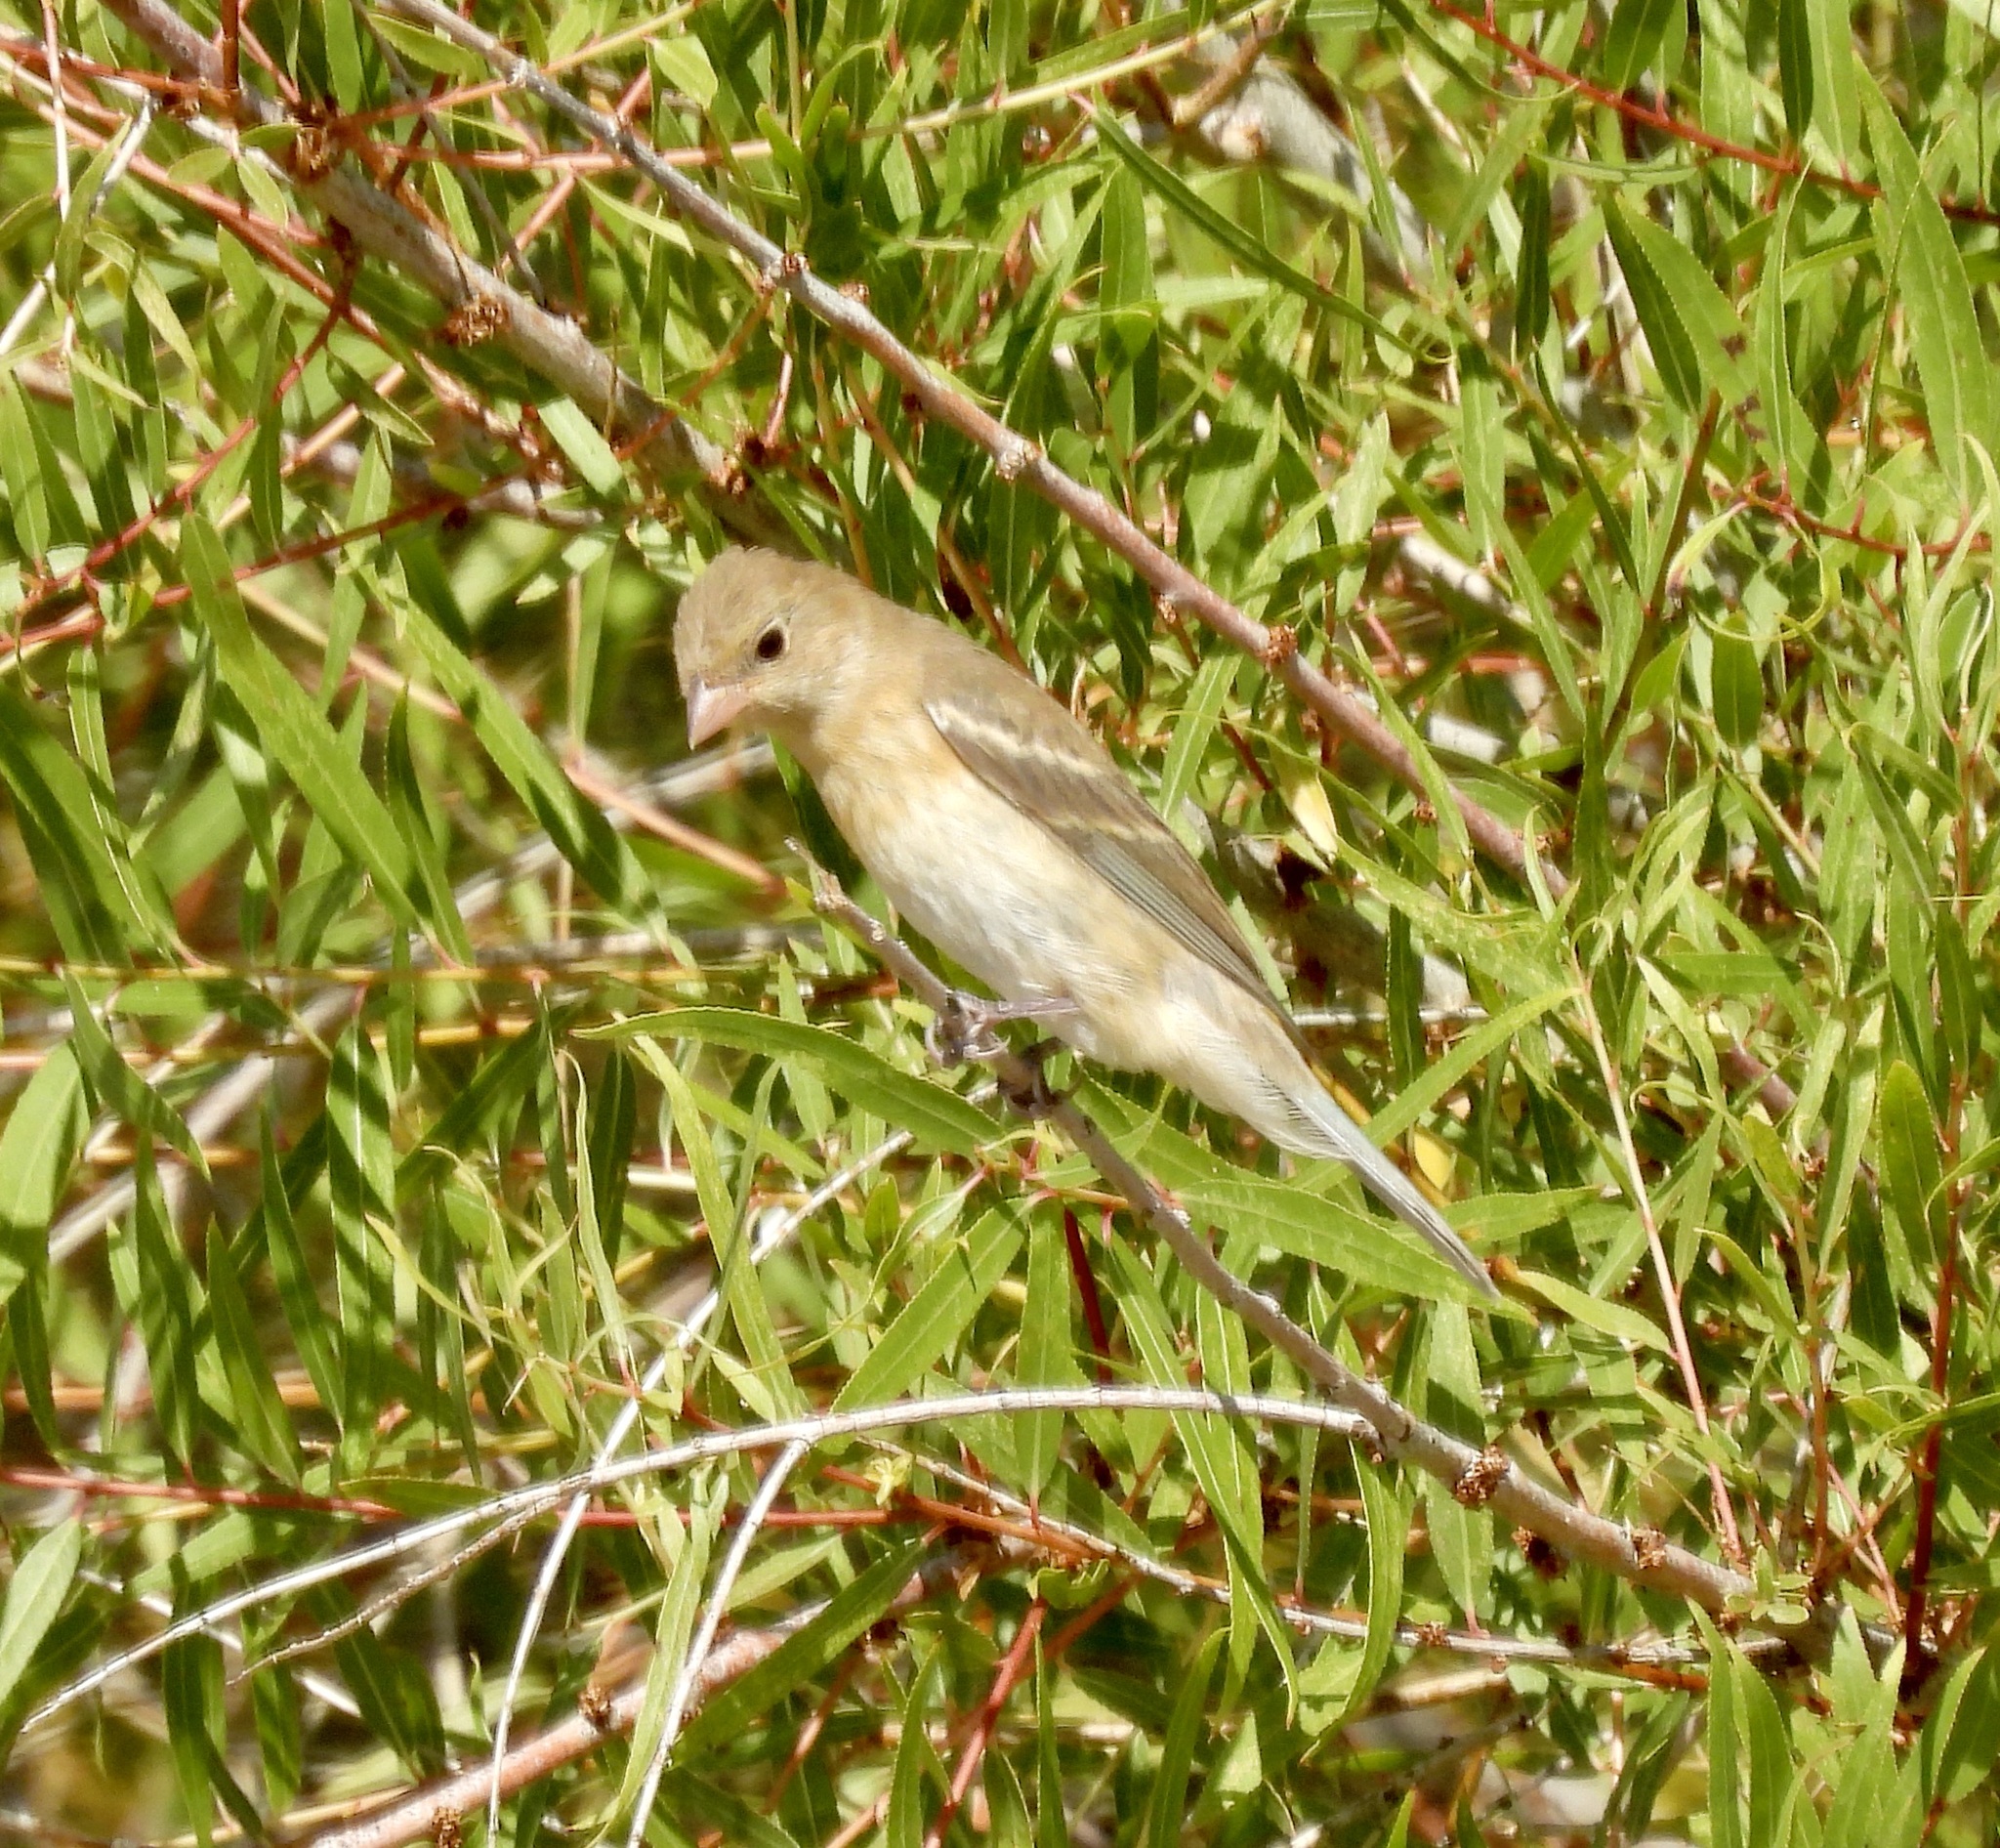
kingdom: Animalia
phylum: Chordata
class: Aves
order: Passeriformes
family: Cardinalidae
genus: Passerina
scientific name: Passerina amoena
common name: Lazuli bunting
